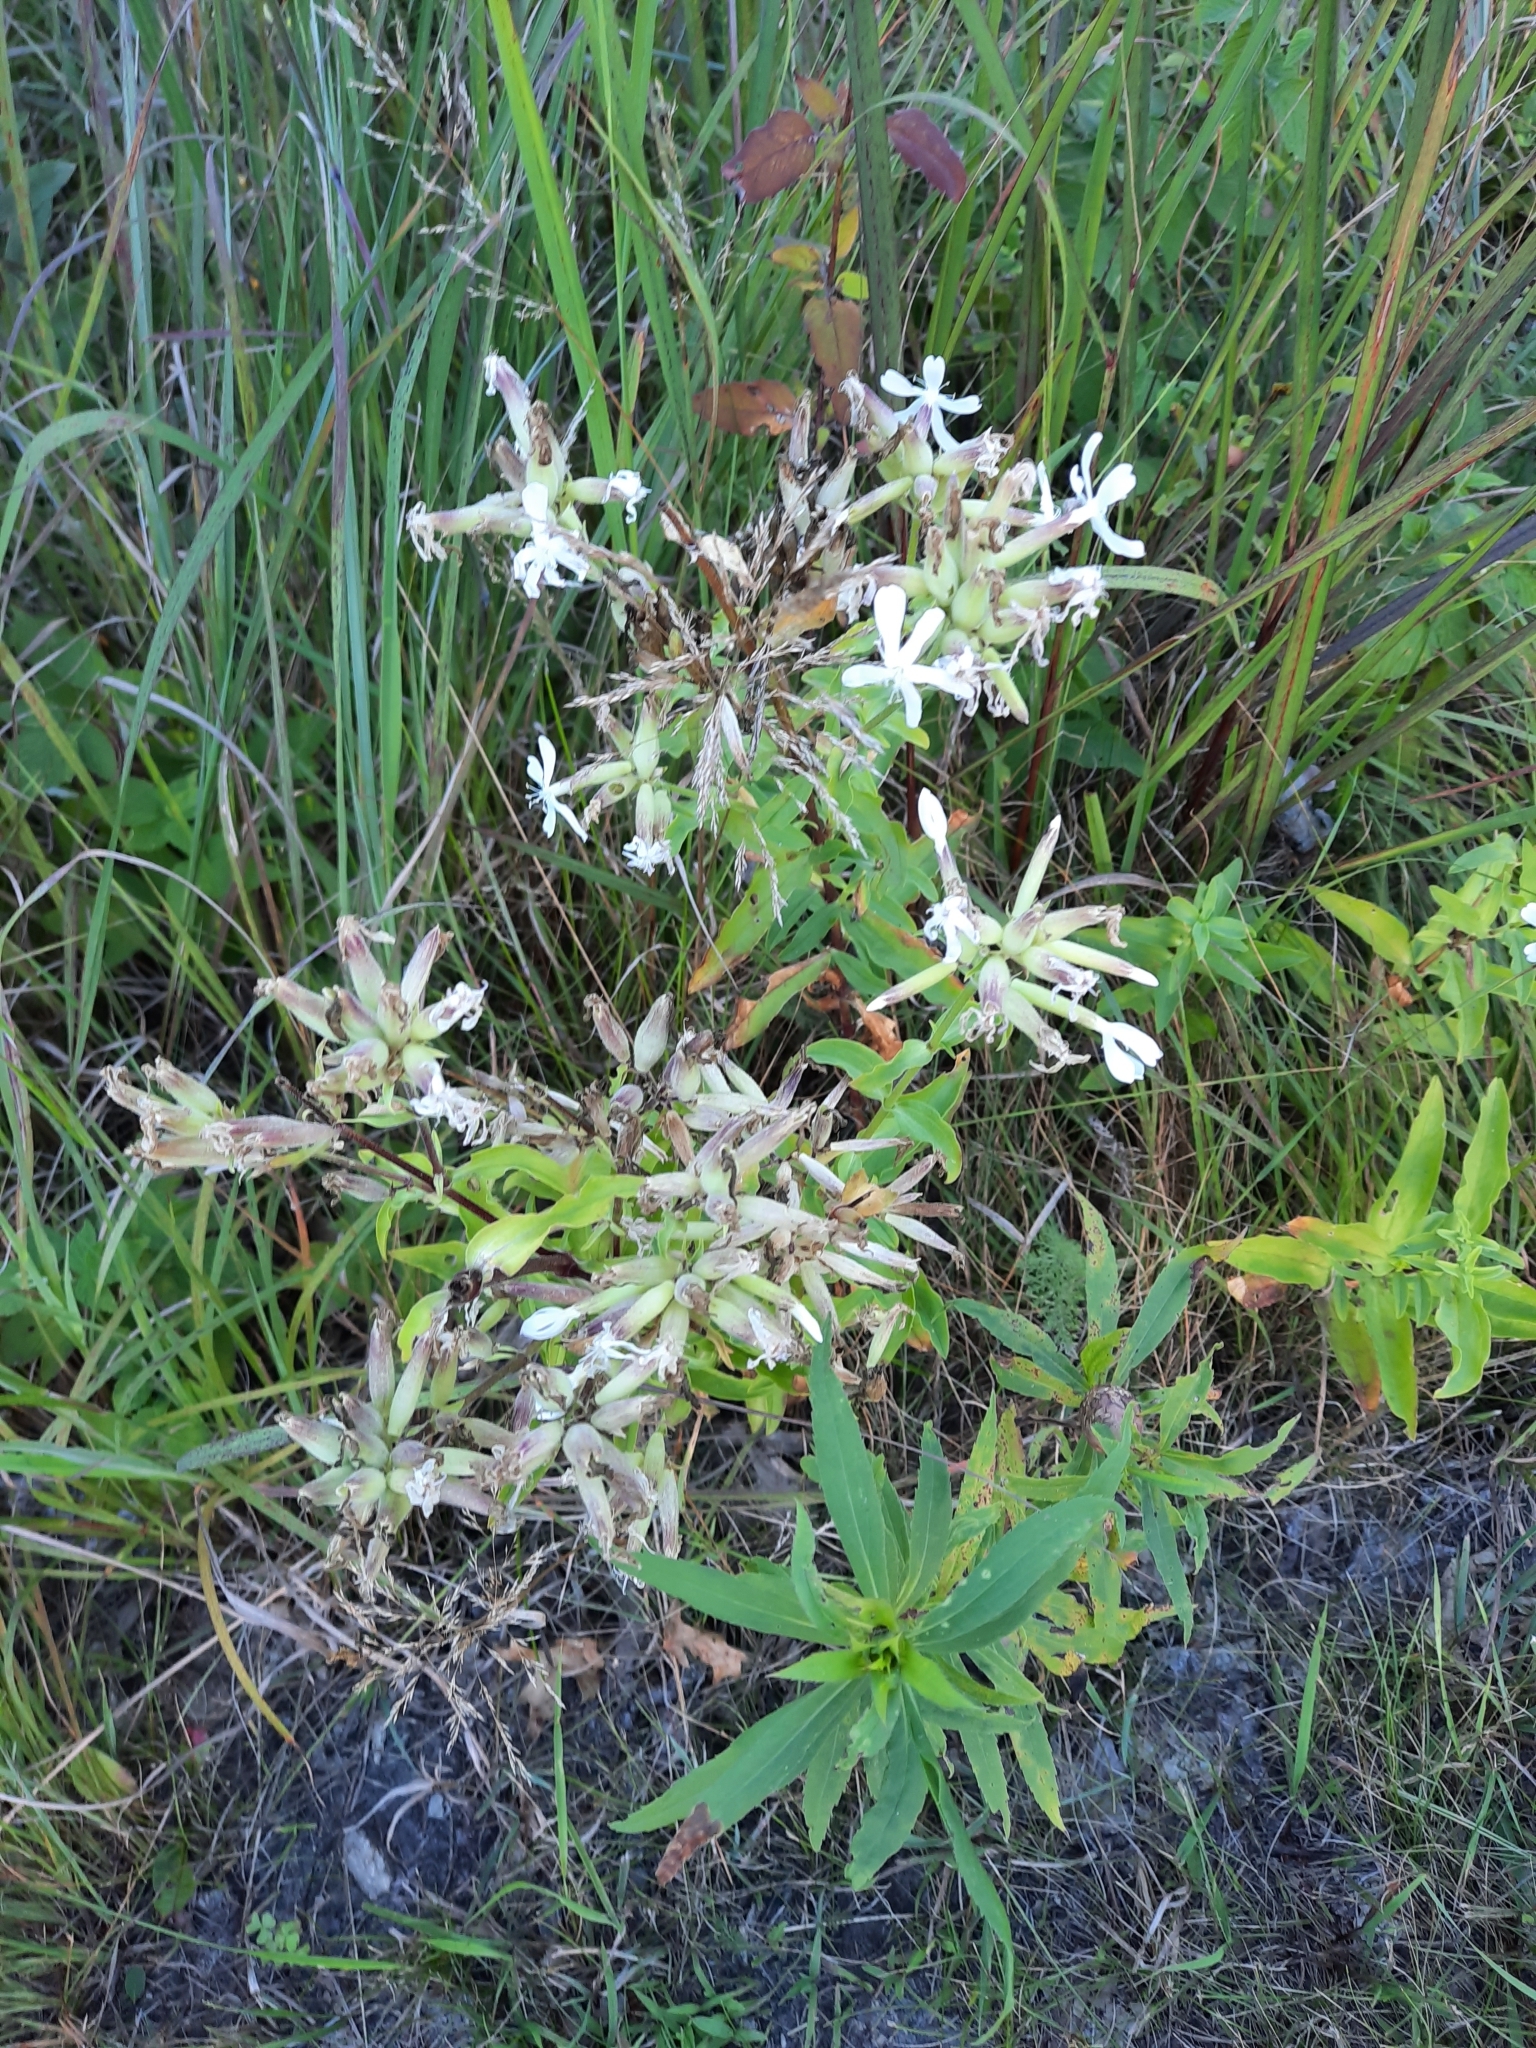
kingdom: Plantae
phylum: Tracheophyta
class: Magnoliopsida
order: Caryophyllales
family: Caryophyllaceae
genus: Saponaria
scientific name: Saponaria officinalis
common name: Soapwort
